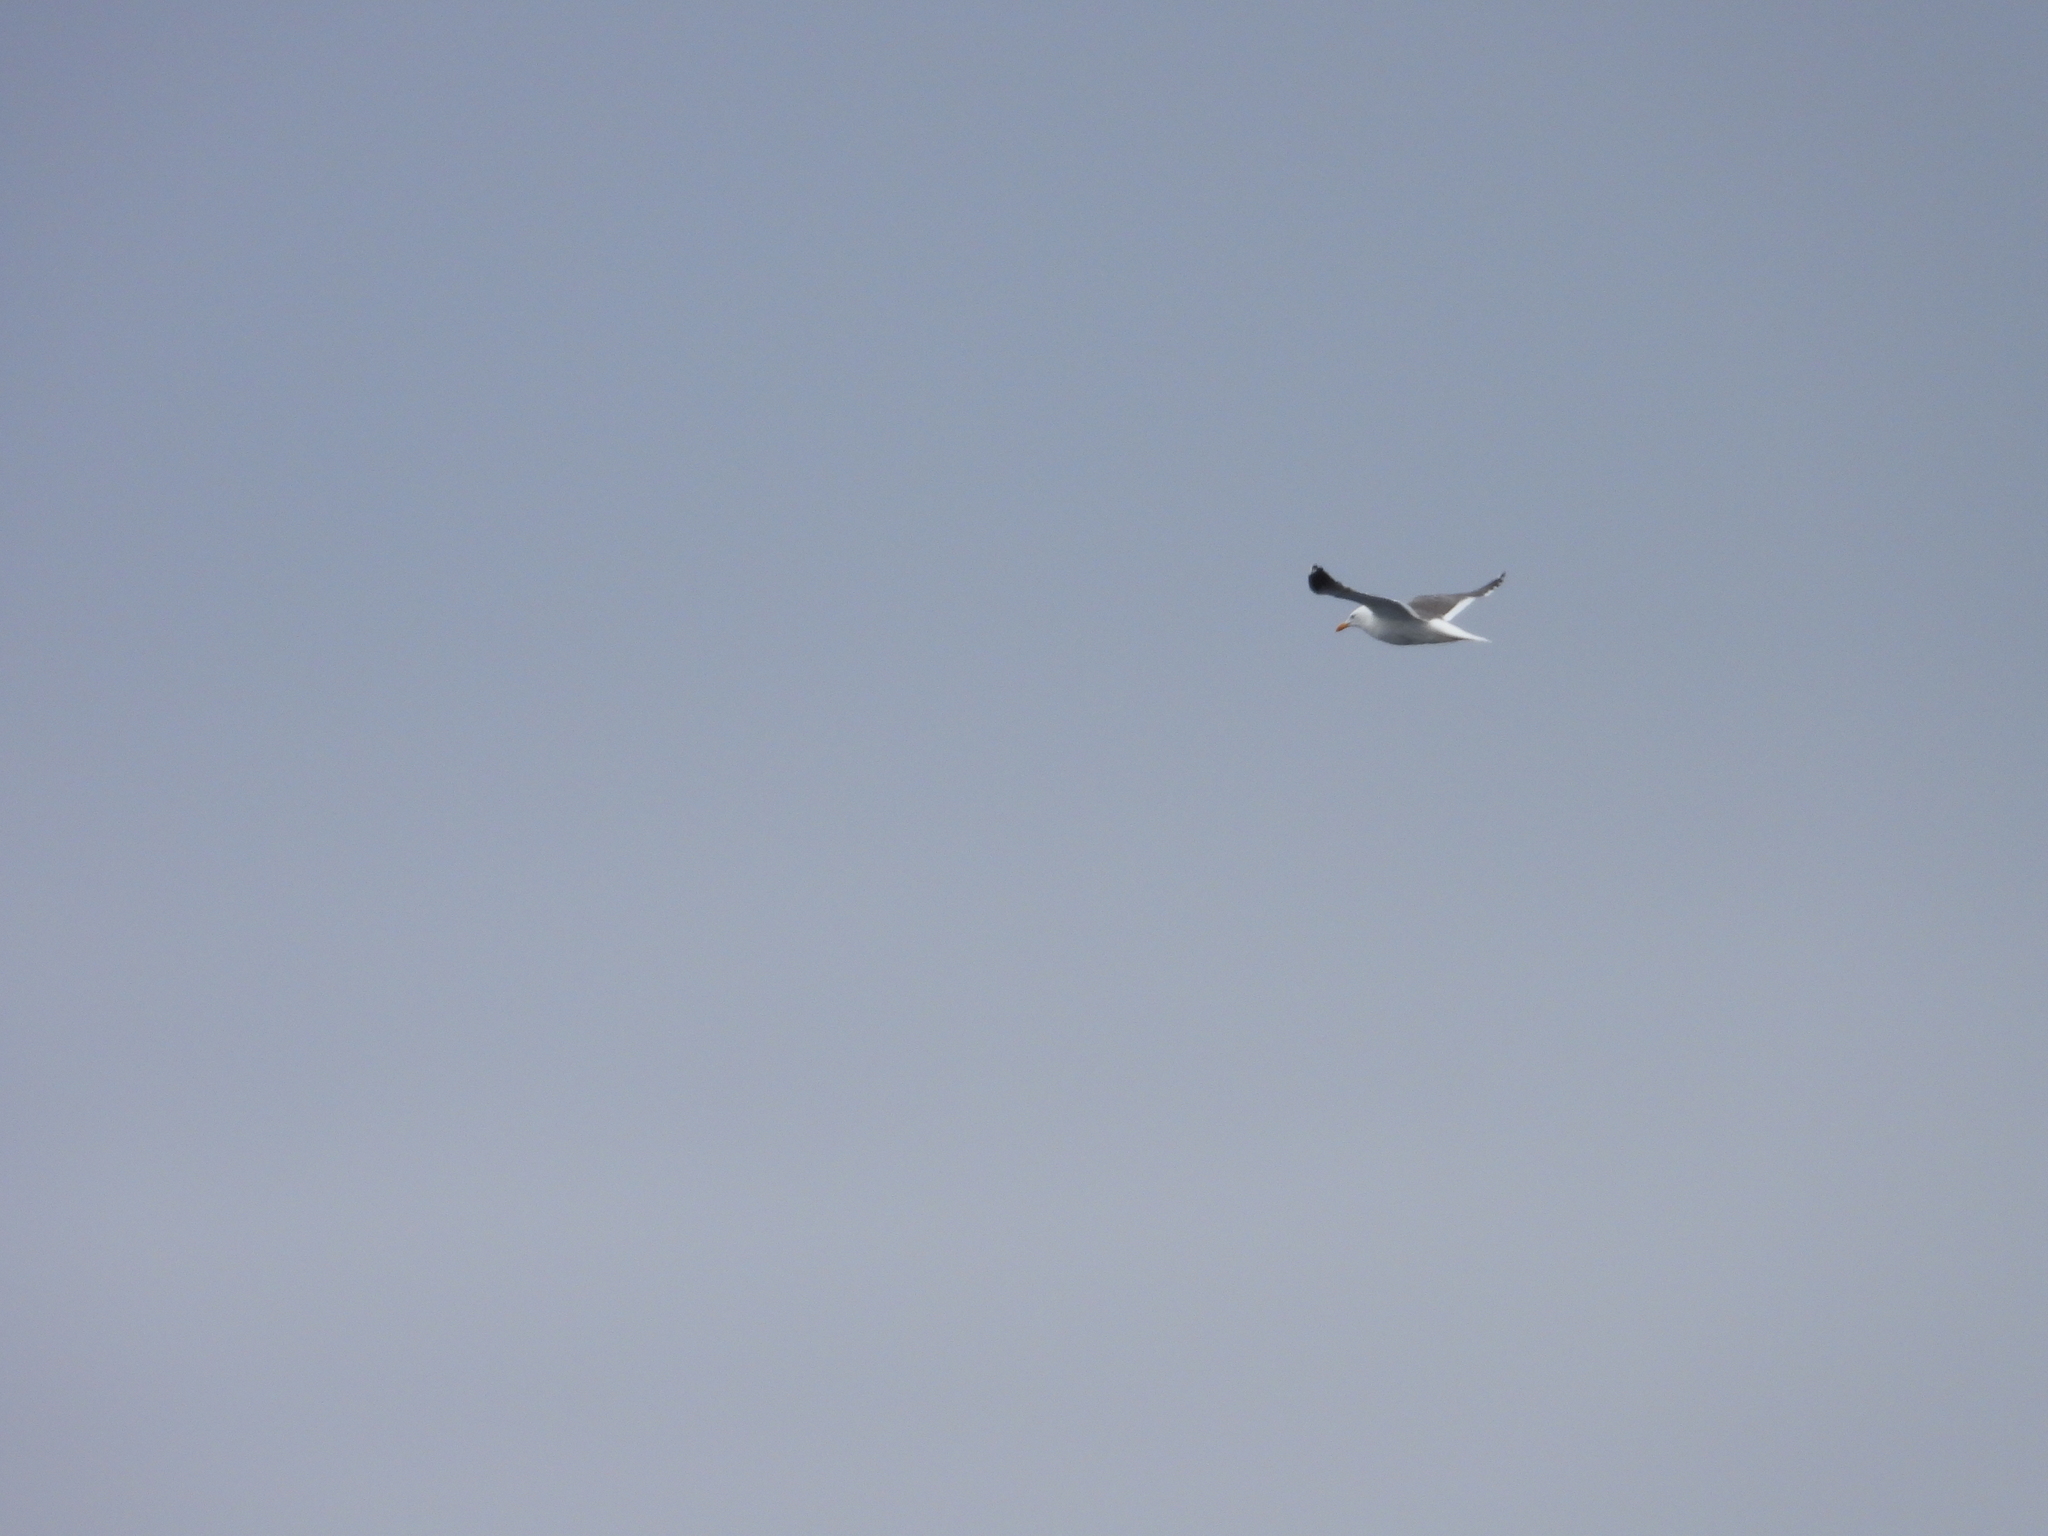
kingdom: Animalia
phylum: Chordata
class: Aves
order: Charadriiformes
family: Laridae
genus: Larus
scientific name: Larus fuscus
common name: Lesser black-backed gull
